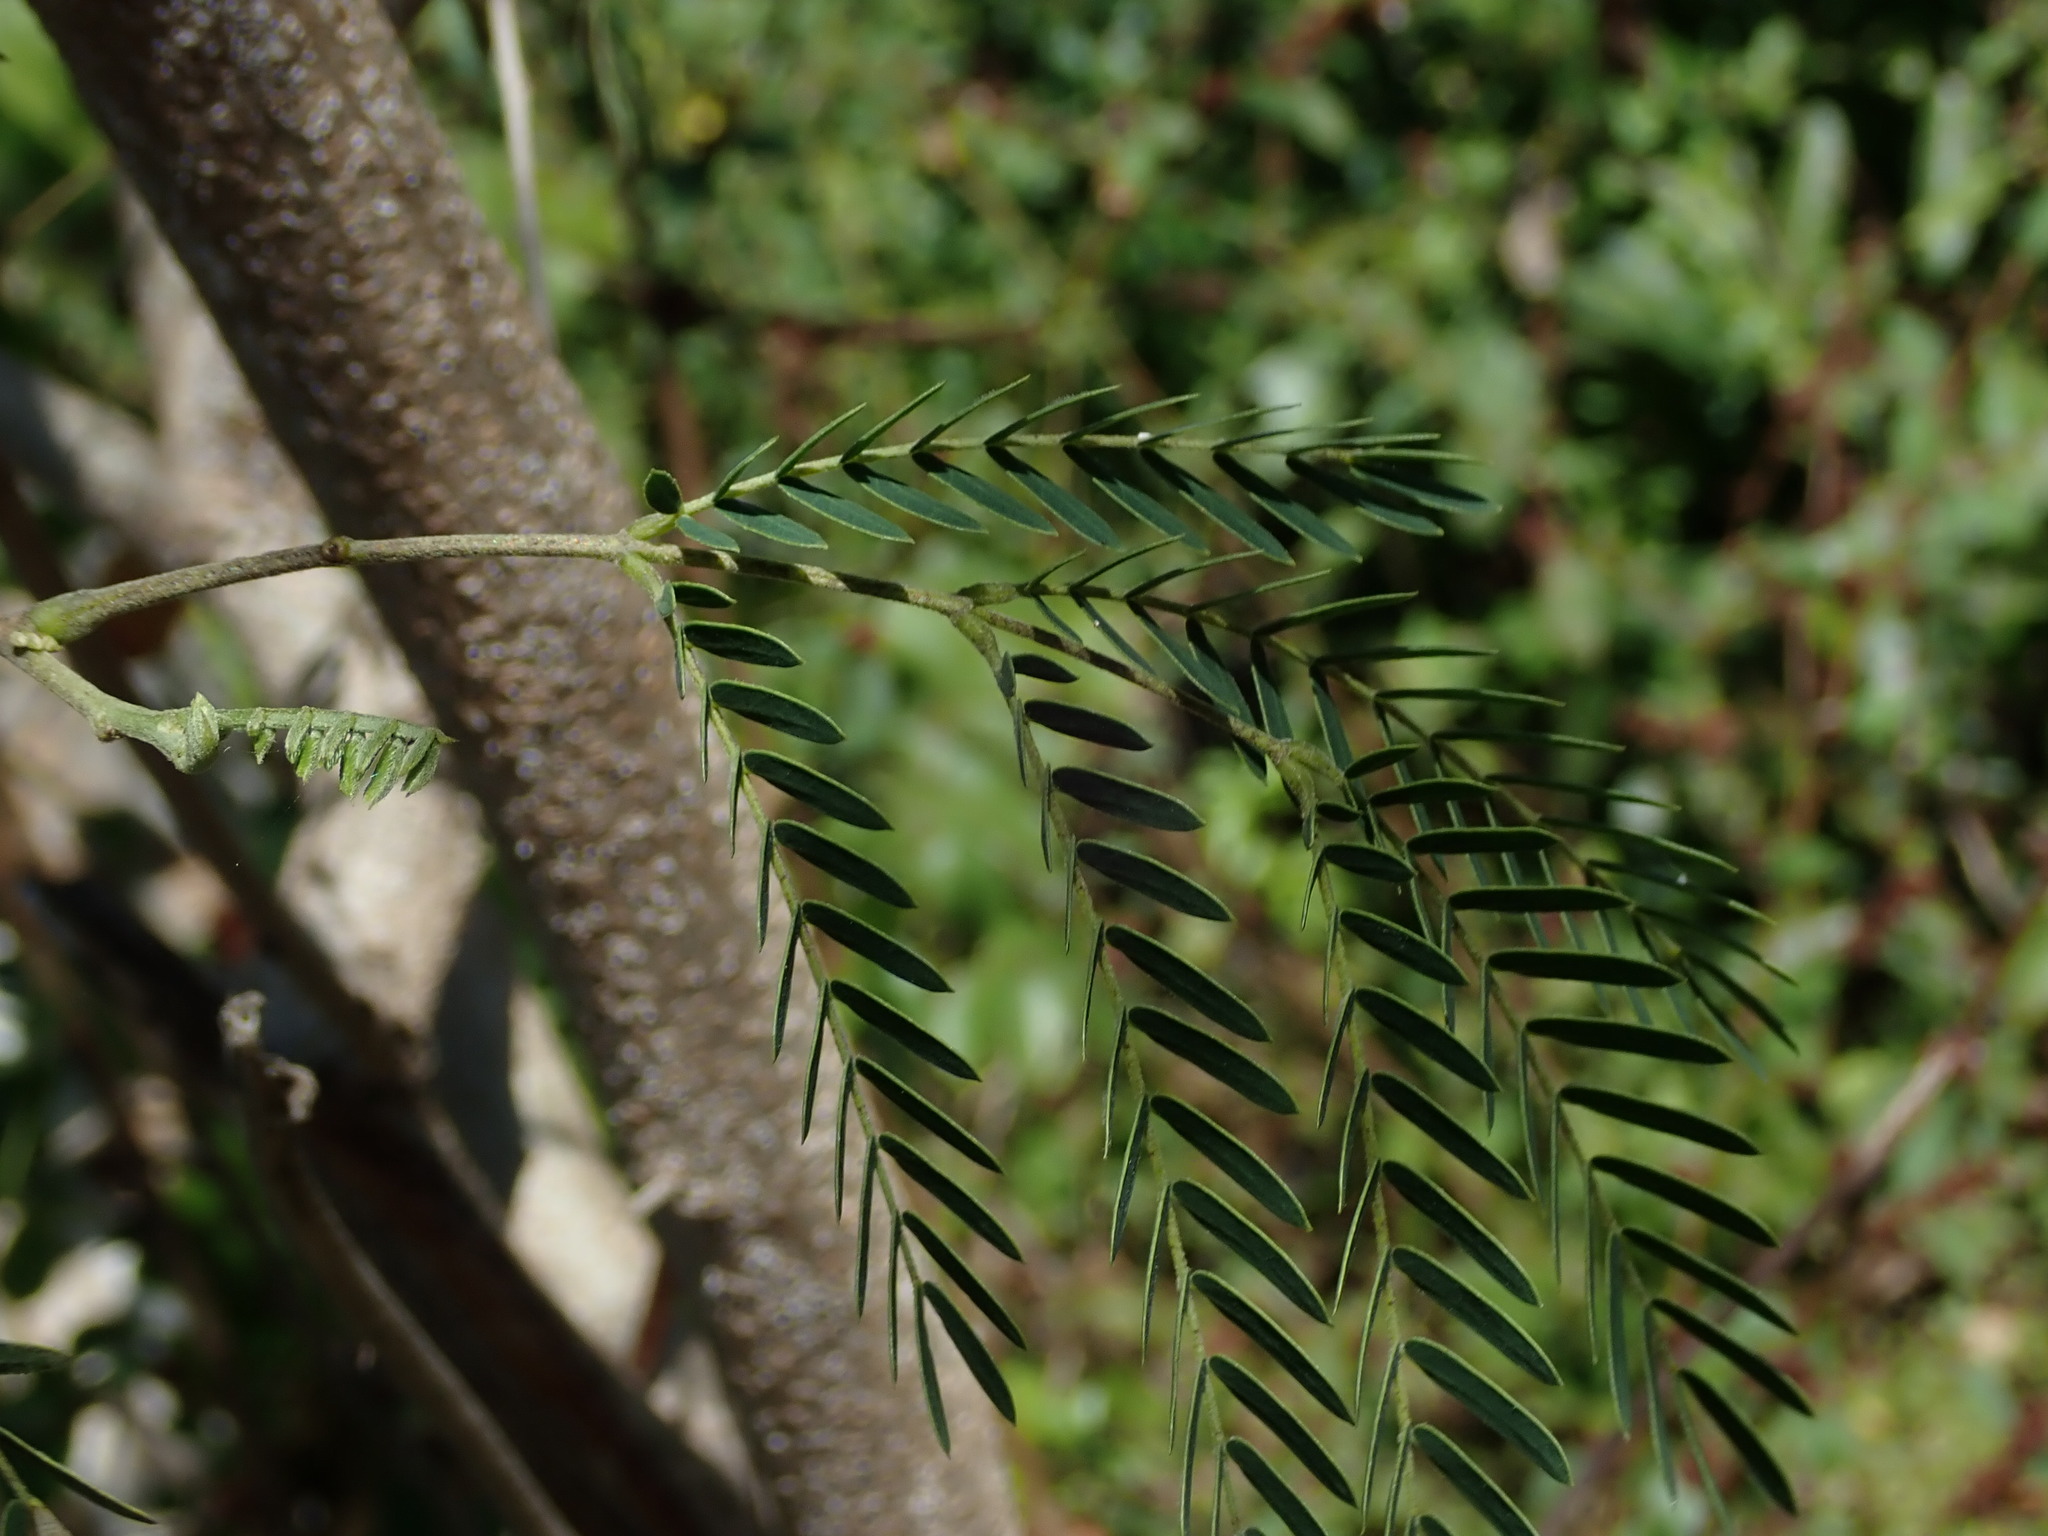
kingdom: Plantae
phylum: Tracheophyta
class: Magnoliopsida
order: Fabales
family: Fabaceae
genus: Leucaena
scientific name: Leucaena leucocephala
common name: White leadtree
